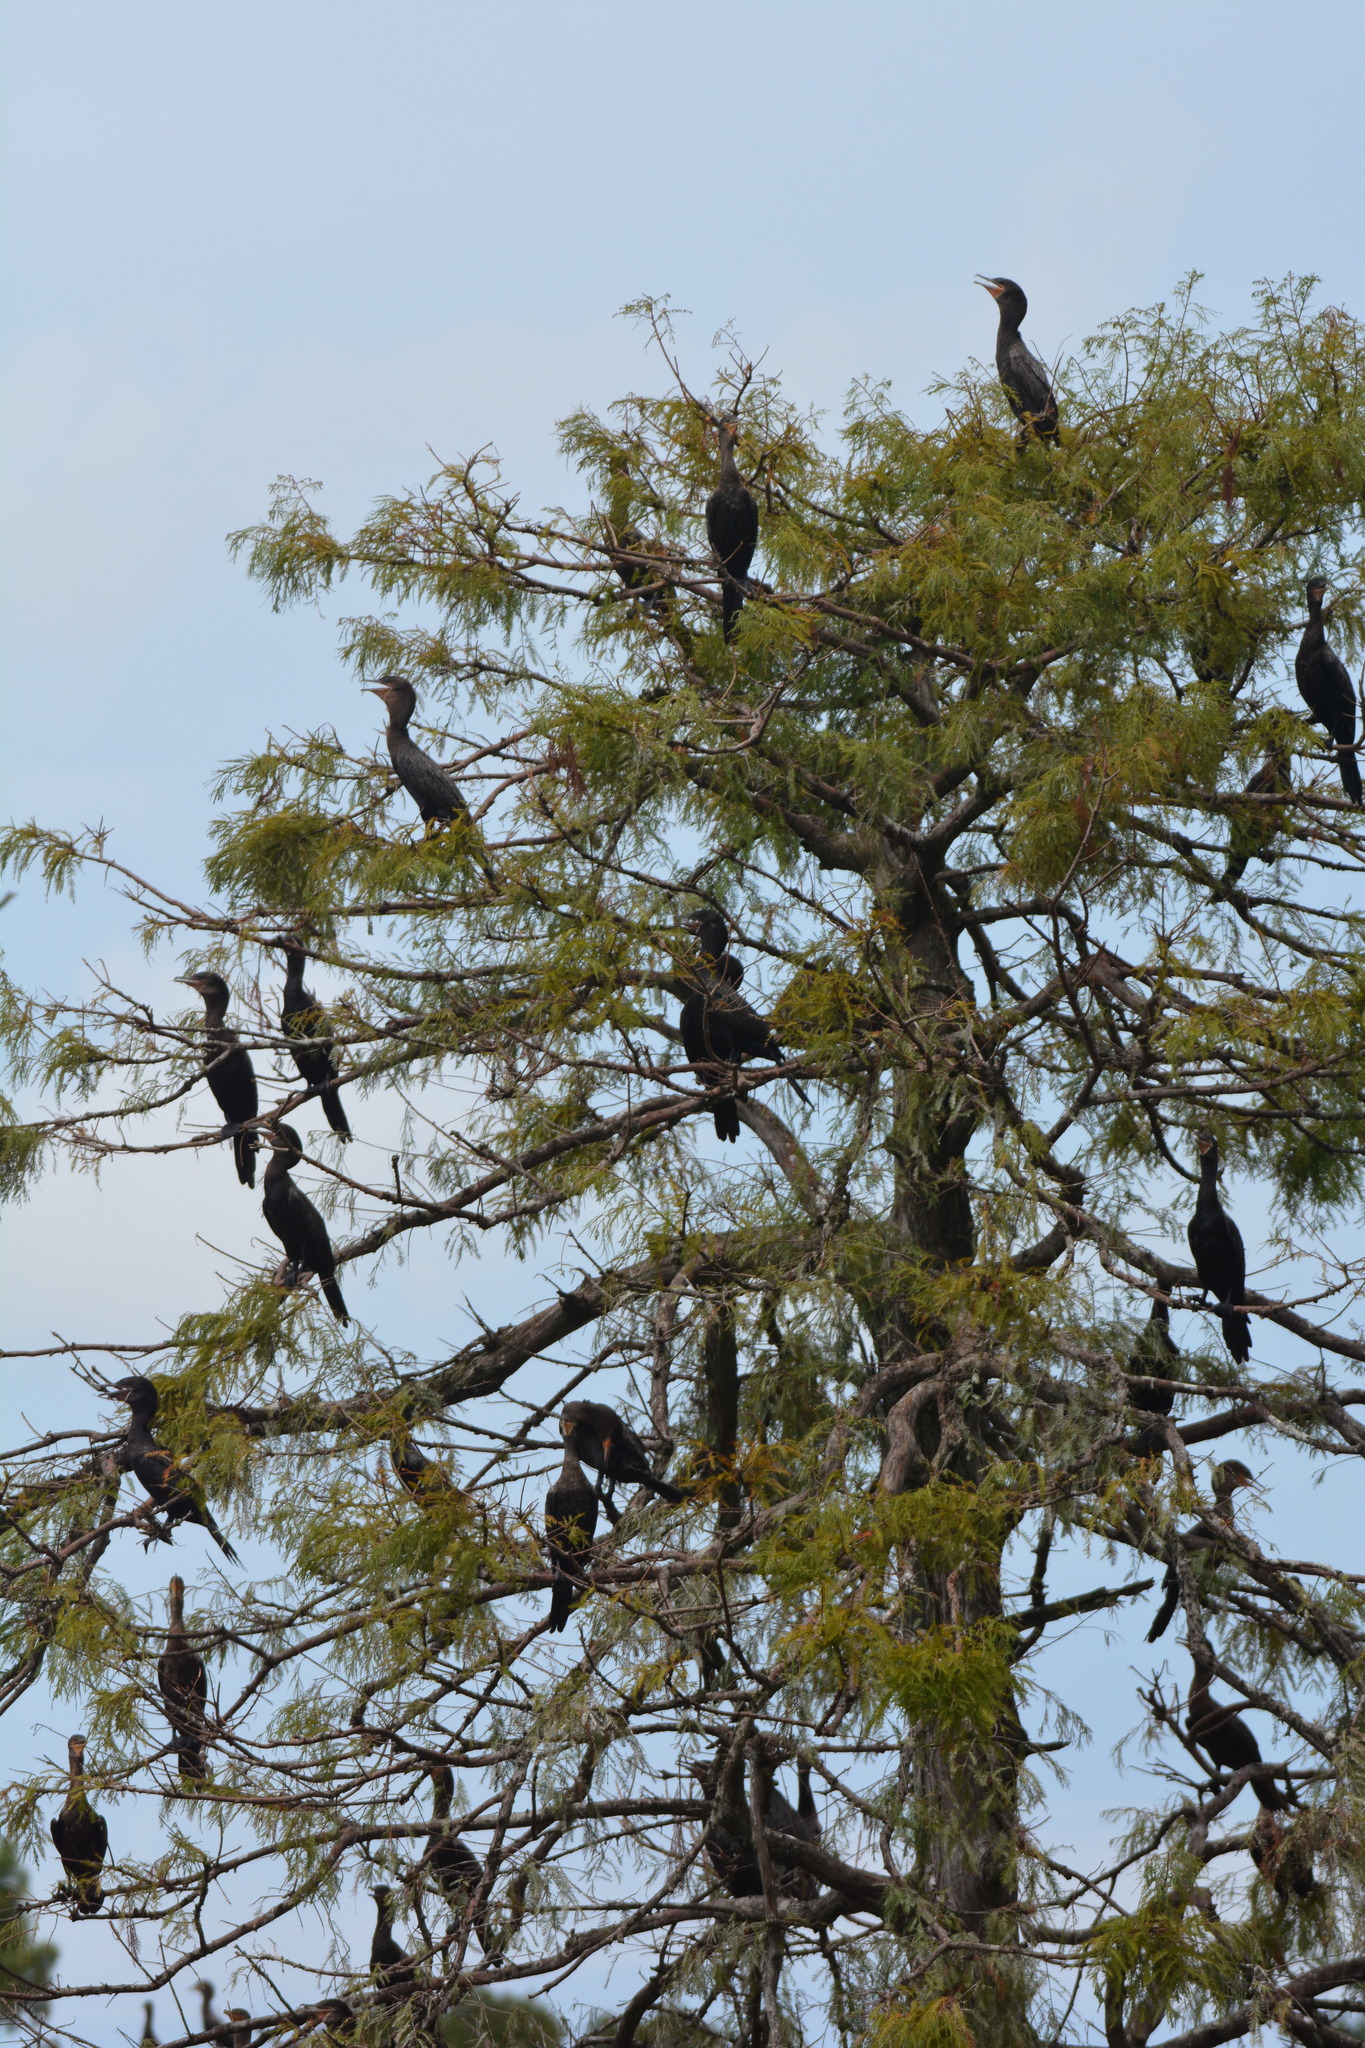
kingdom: Animalia
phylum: Chordata
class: Aves
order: Suliformes
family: Phalacrocoracidae
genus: Phalacrocorax
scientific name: Phalacrocorax brasilianus
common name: Neotropic cormorant
